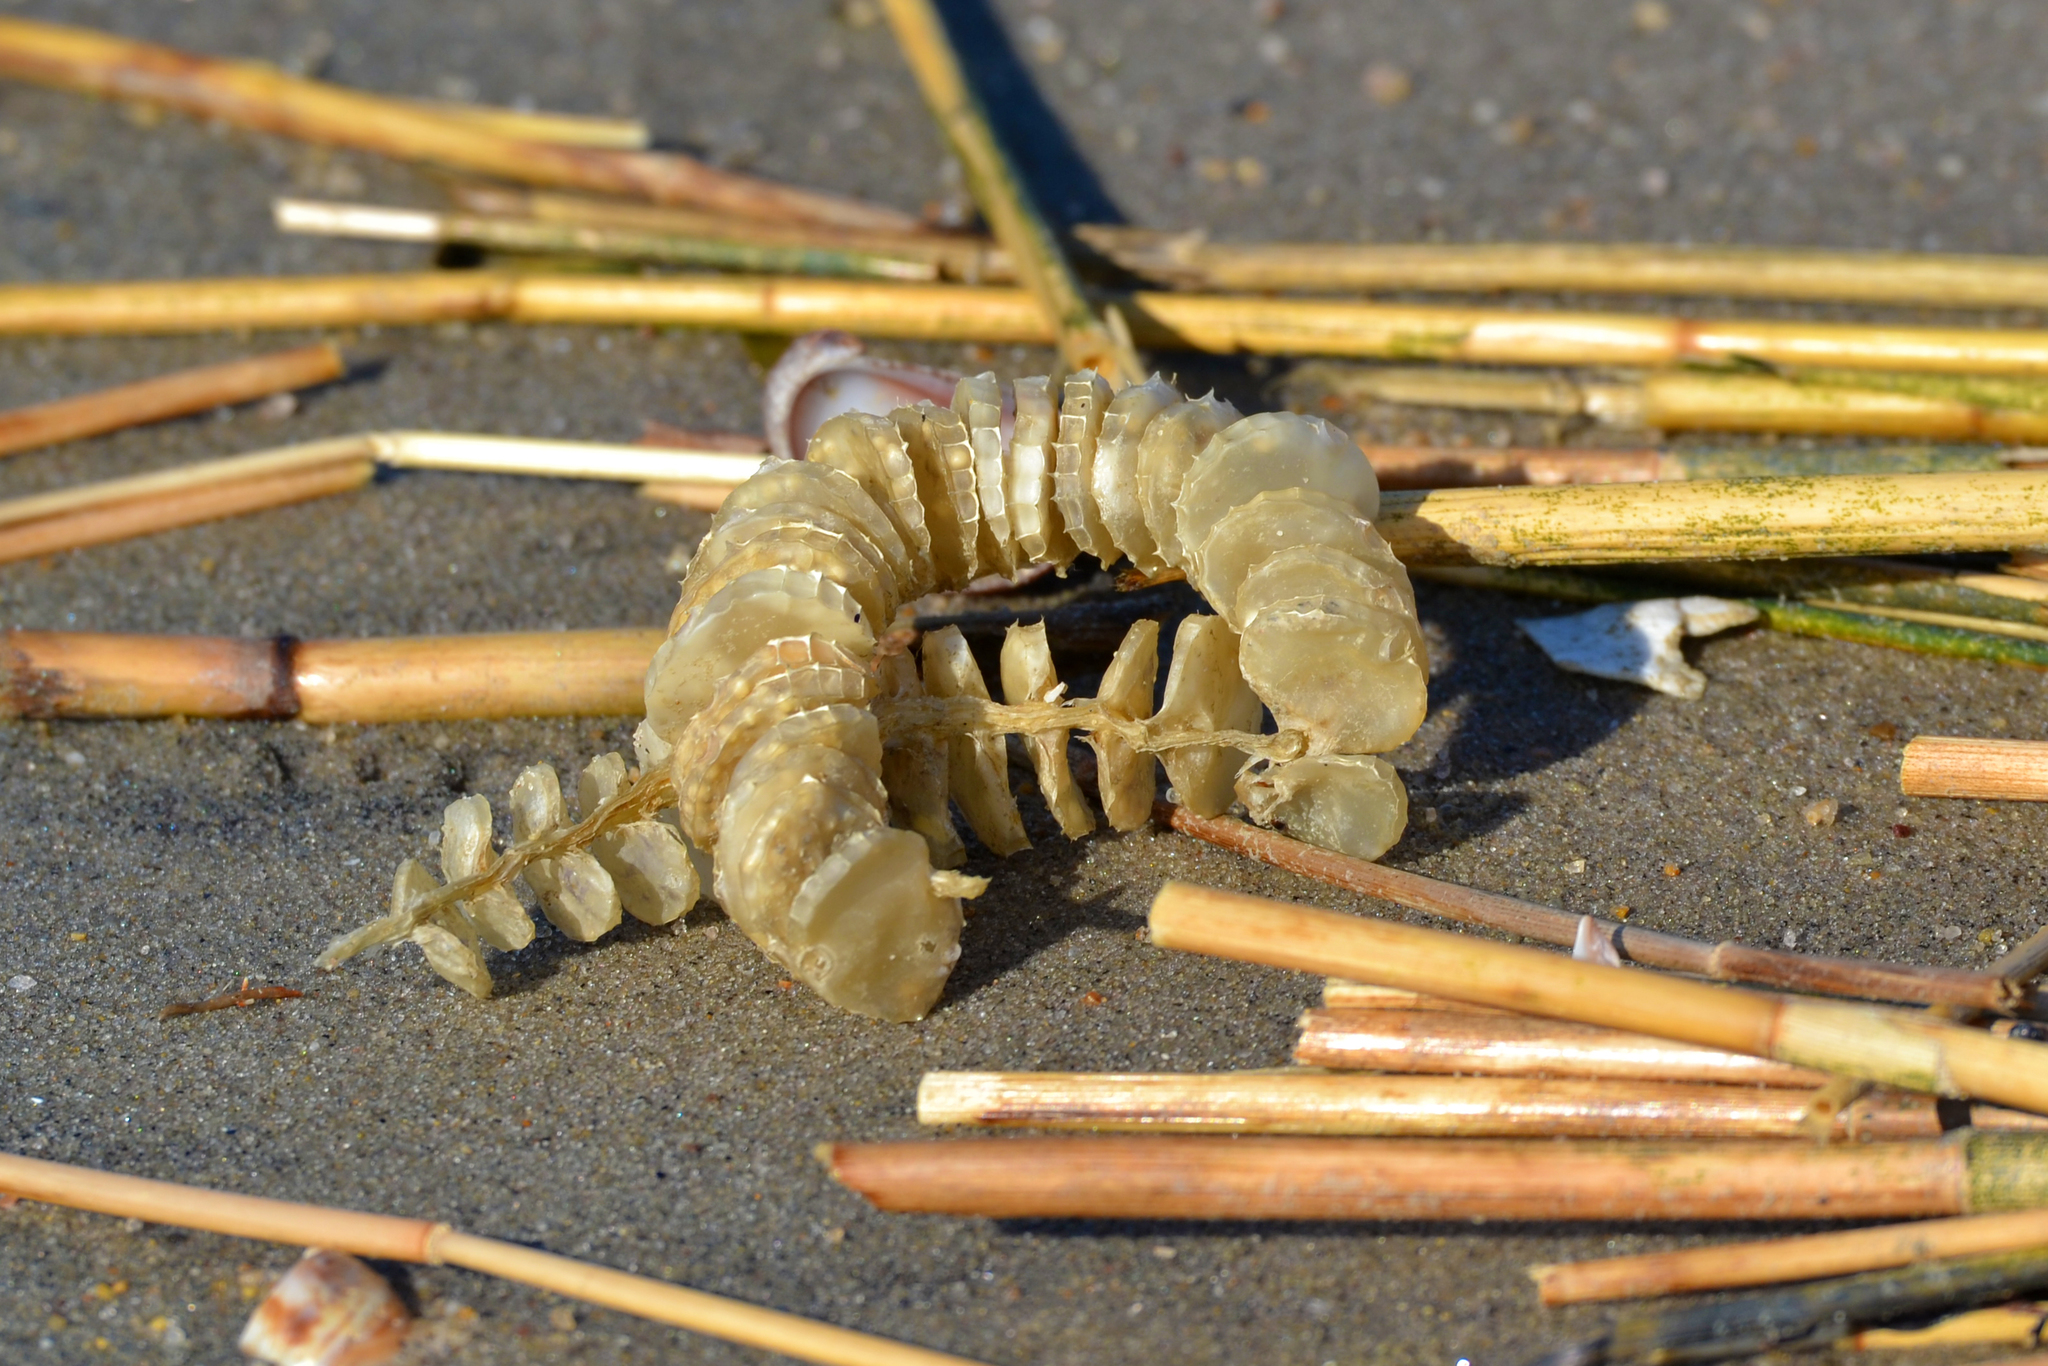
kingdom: Animalia
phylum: Mollusca
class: Gastropoda
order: Neogastropoda
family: Busyconidae
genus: Busycon
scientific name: Busycon carica
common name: Knobbed whelk
